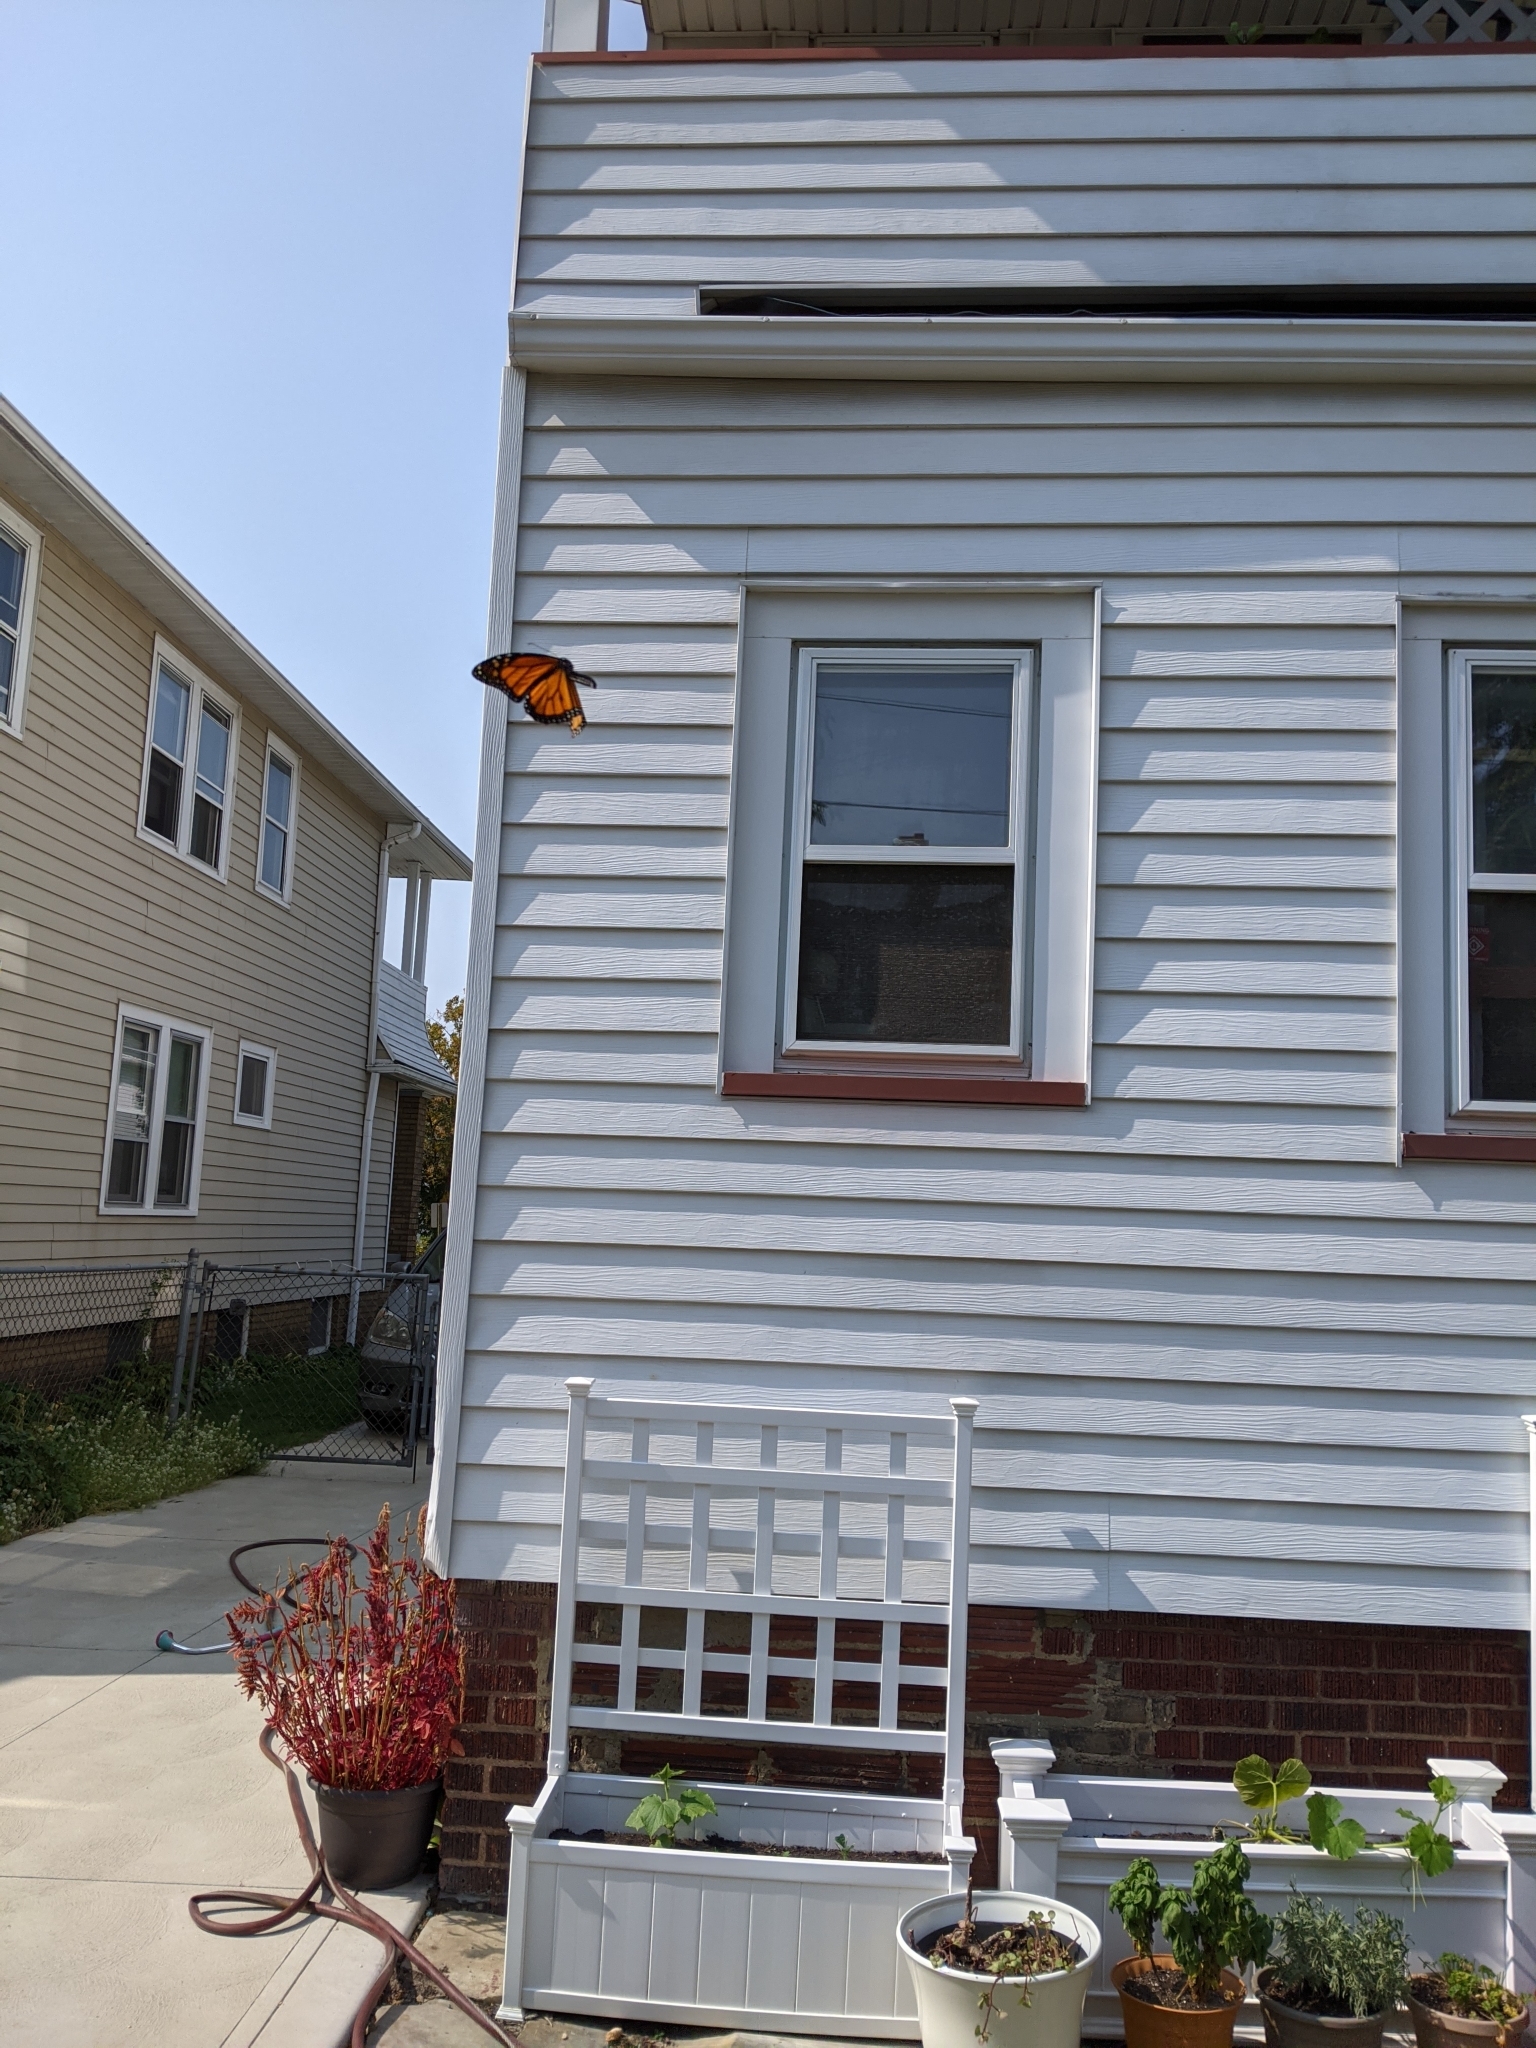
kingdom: Animalia
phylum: Arthropoda
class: Insecta
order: Lepidoptera
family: Nymphalidae
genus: Danaus
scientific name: Danaus plexippus
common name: Monarch
